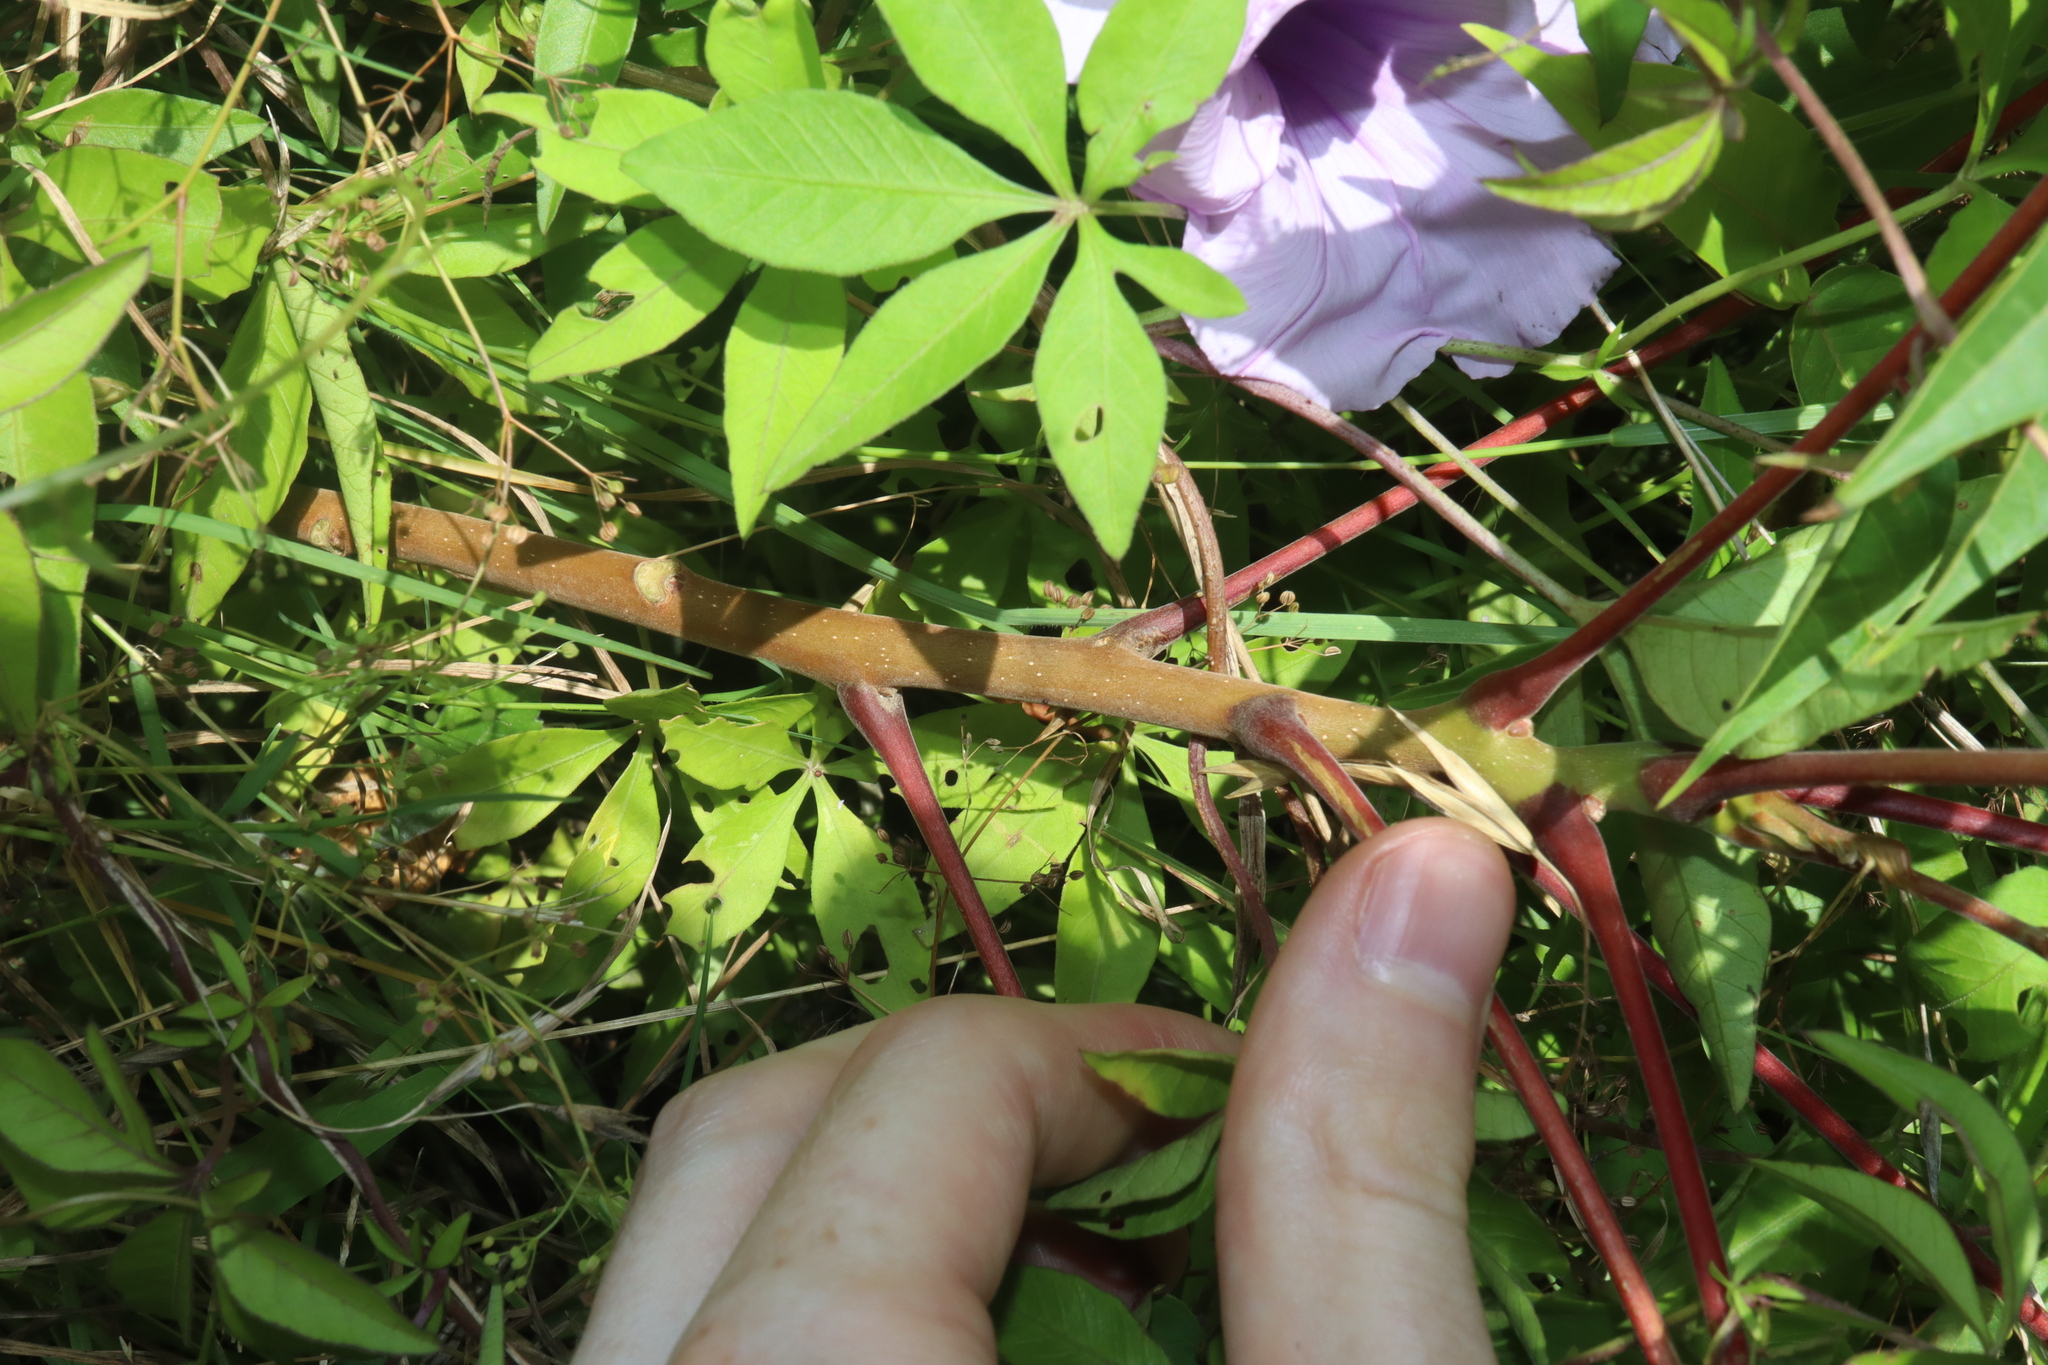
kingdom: Plantae
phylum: Tracheophyta
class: Magnoliopsida
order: Sapindales
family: Simaroubaceae
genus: Ailanthus
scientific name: Ailanthus altissima
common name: Tree-of-heaven
